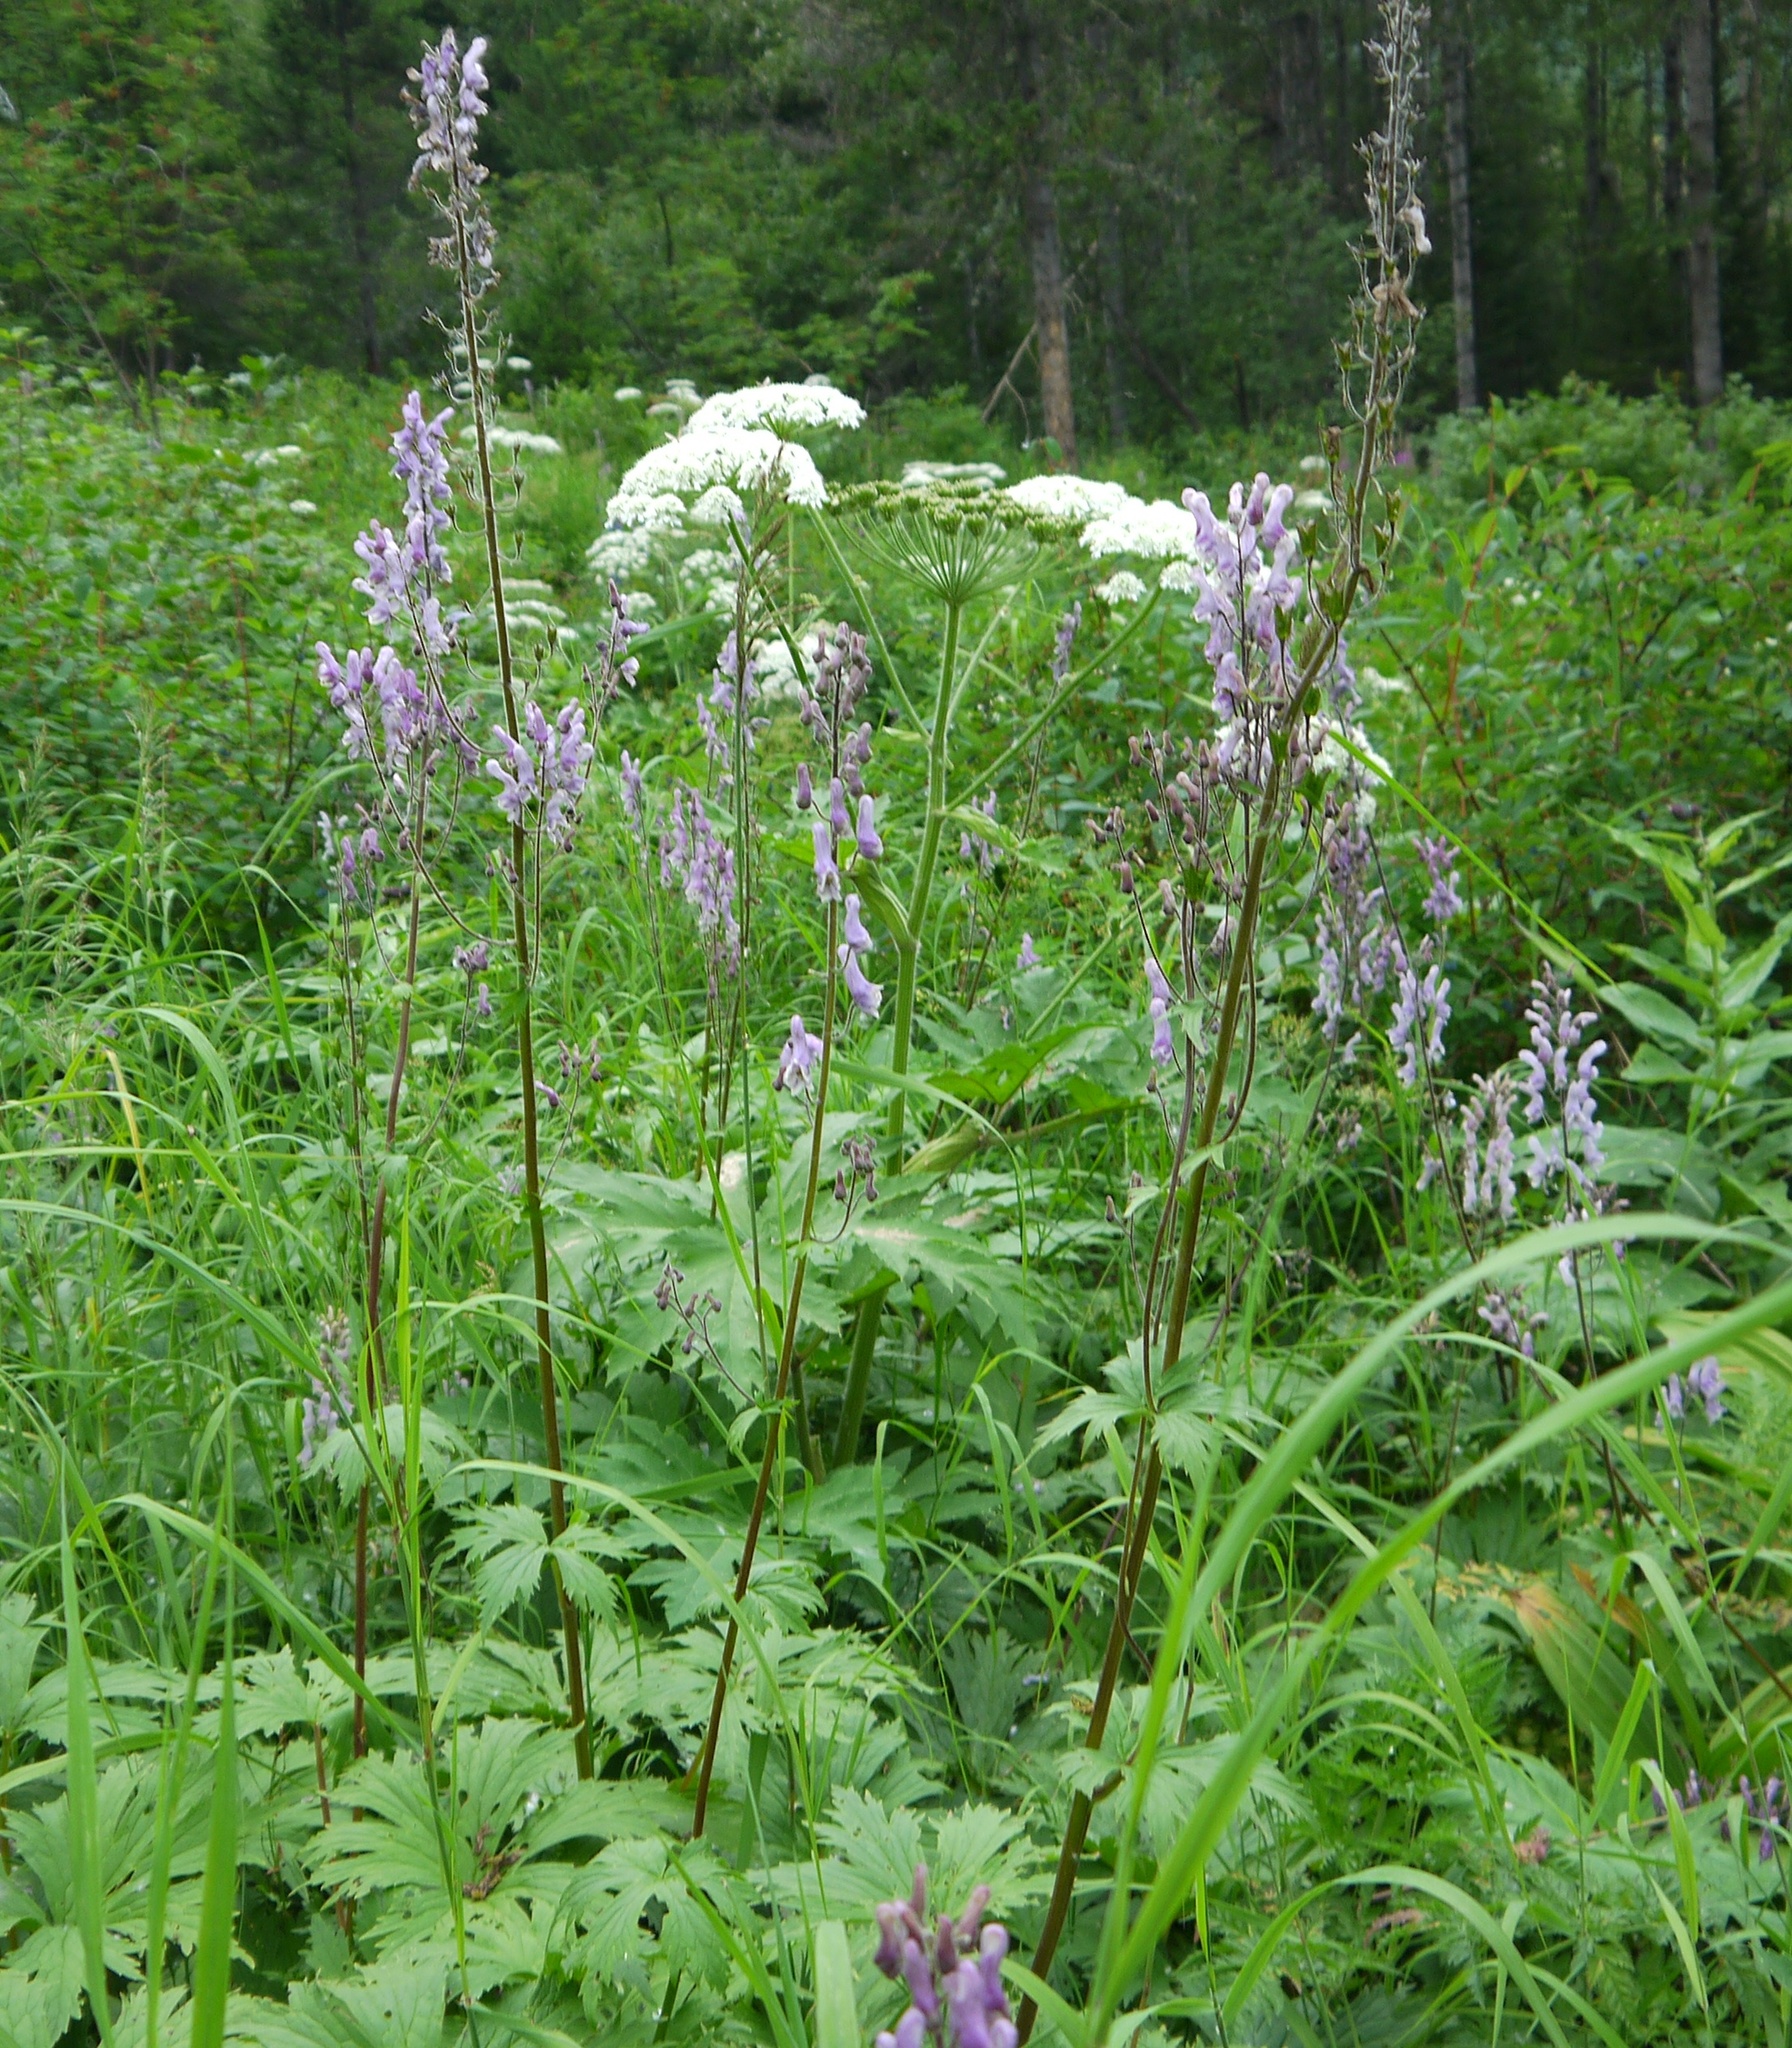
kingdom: Plantae
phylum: Tracheophyta
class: Magnoliopsida
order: Ranunculales
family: Ranunculaceae
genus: Aconitum
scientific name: Aconitum septentrionale
